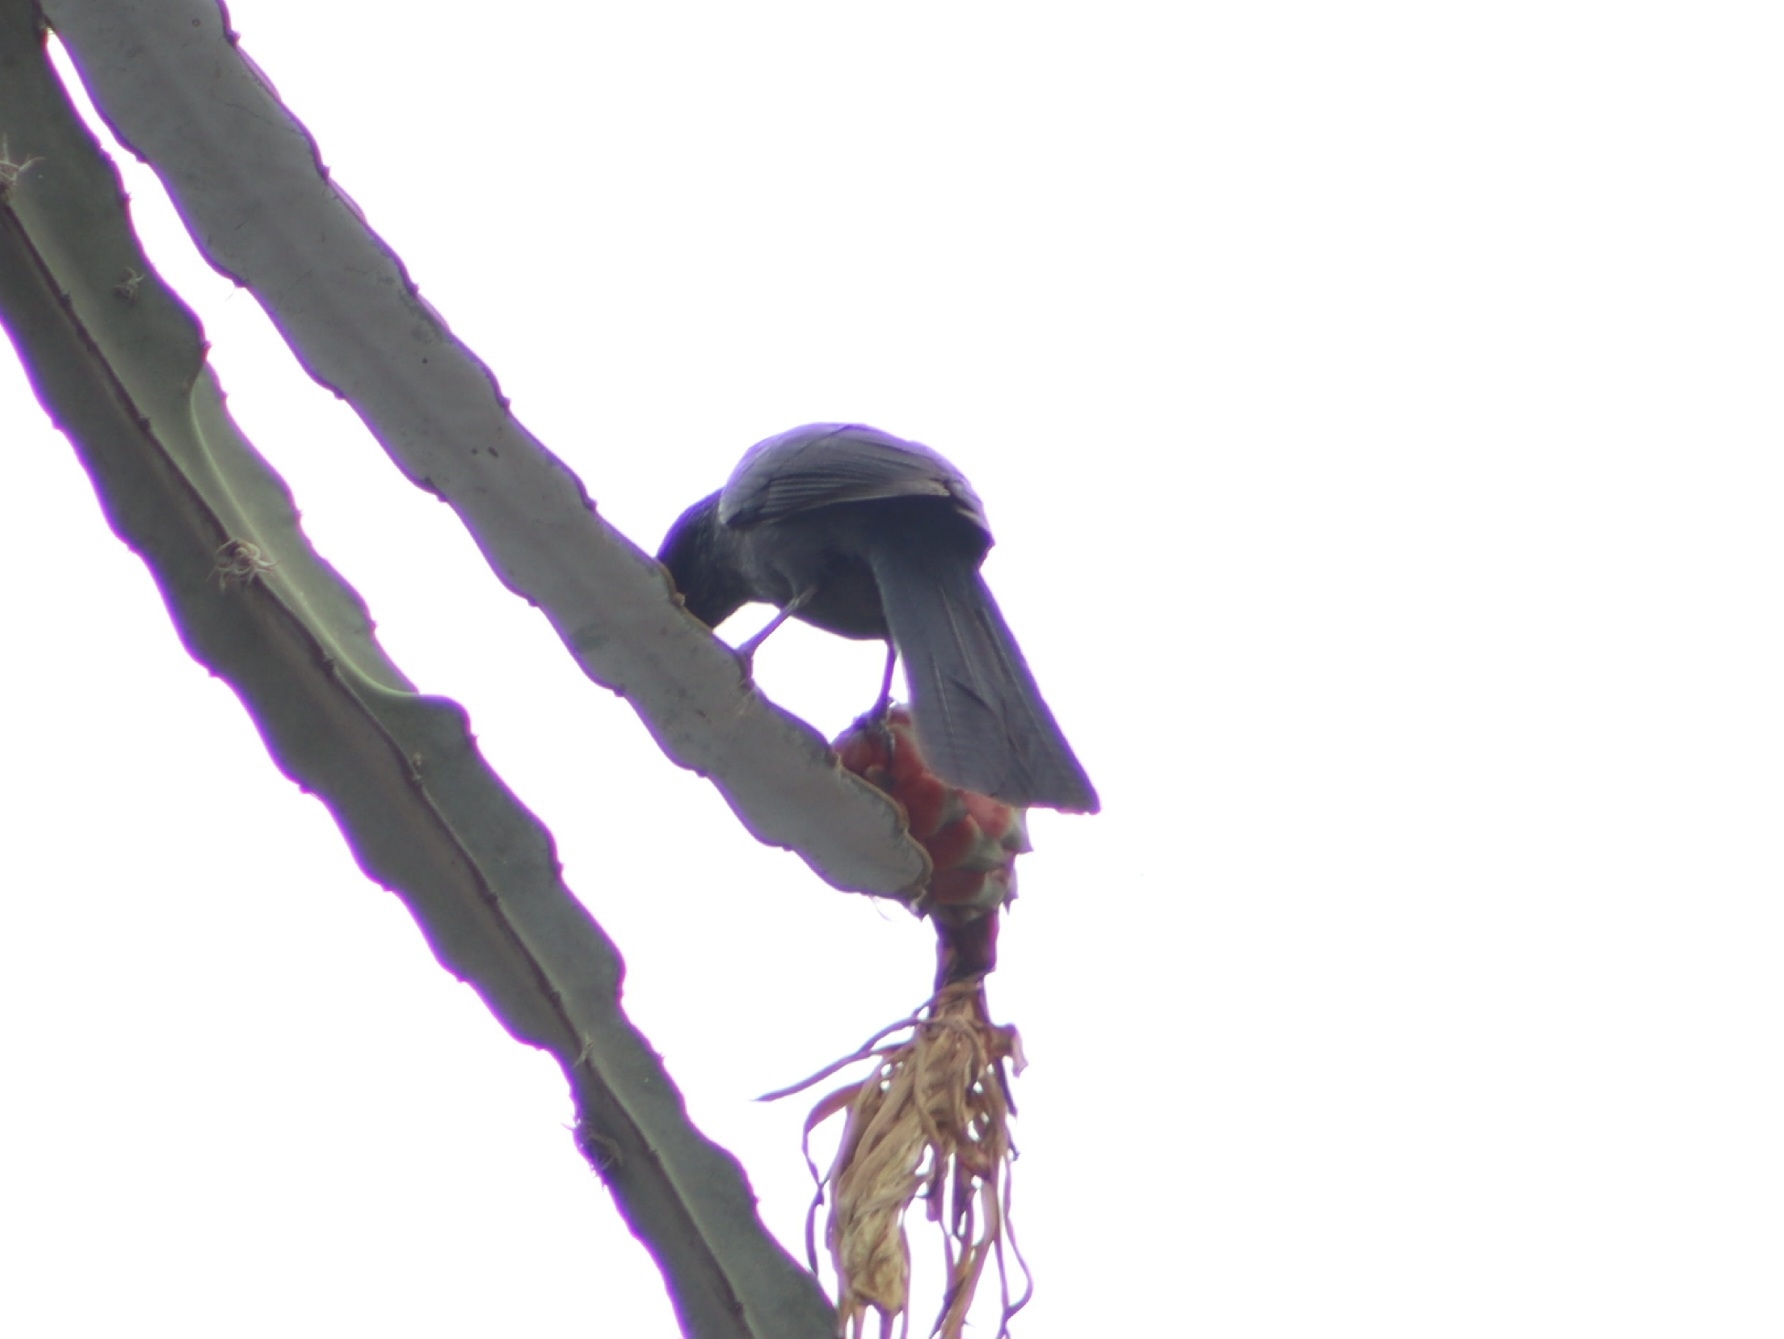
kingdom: Animalia
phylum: Chordata
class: Aves
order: Passeriformes
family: Mimidae
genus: Melanotis
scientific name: Melanotis caerulescens
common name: Blue mockingbird
